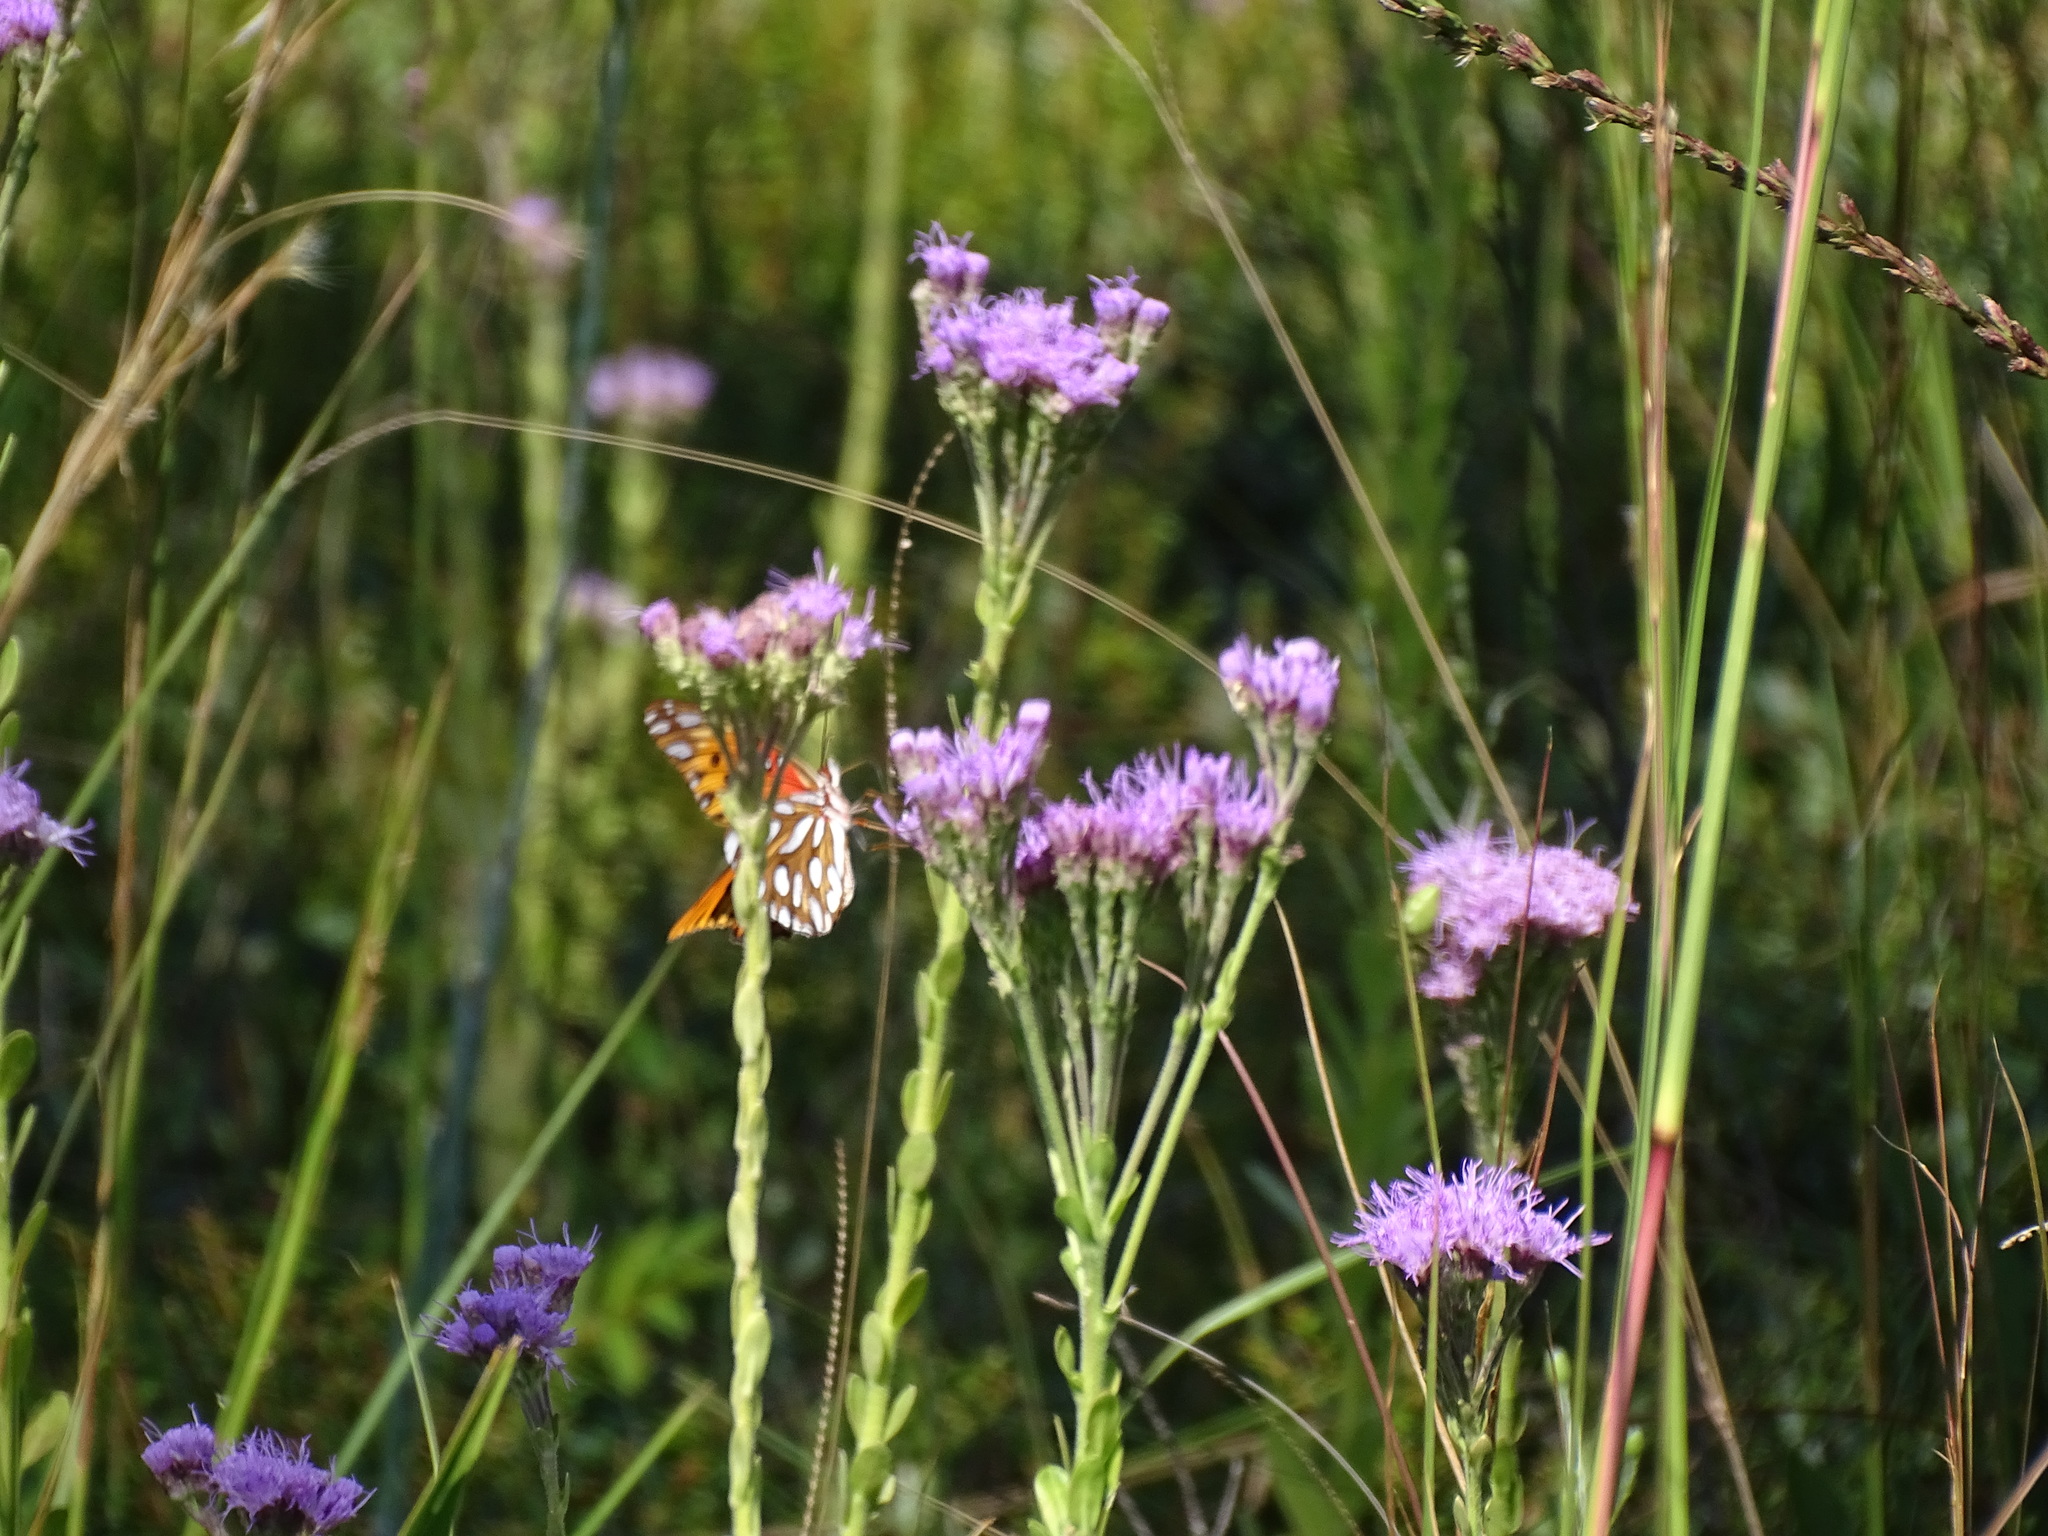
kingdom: Animalia
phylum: Arthropoda
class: Insecta
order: Lepidoptera
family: Nymphalidae
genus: Dione
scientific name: Dione vanillae
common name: Gulf fritillary
